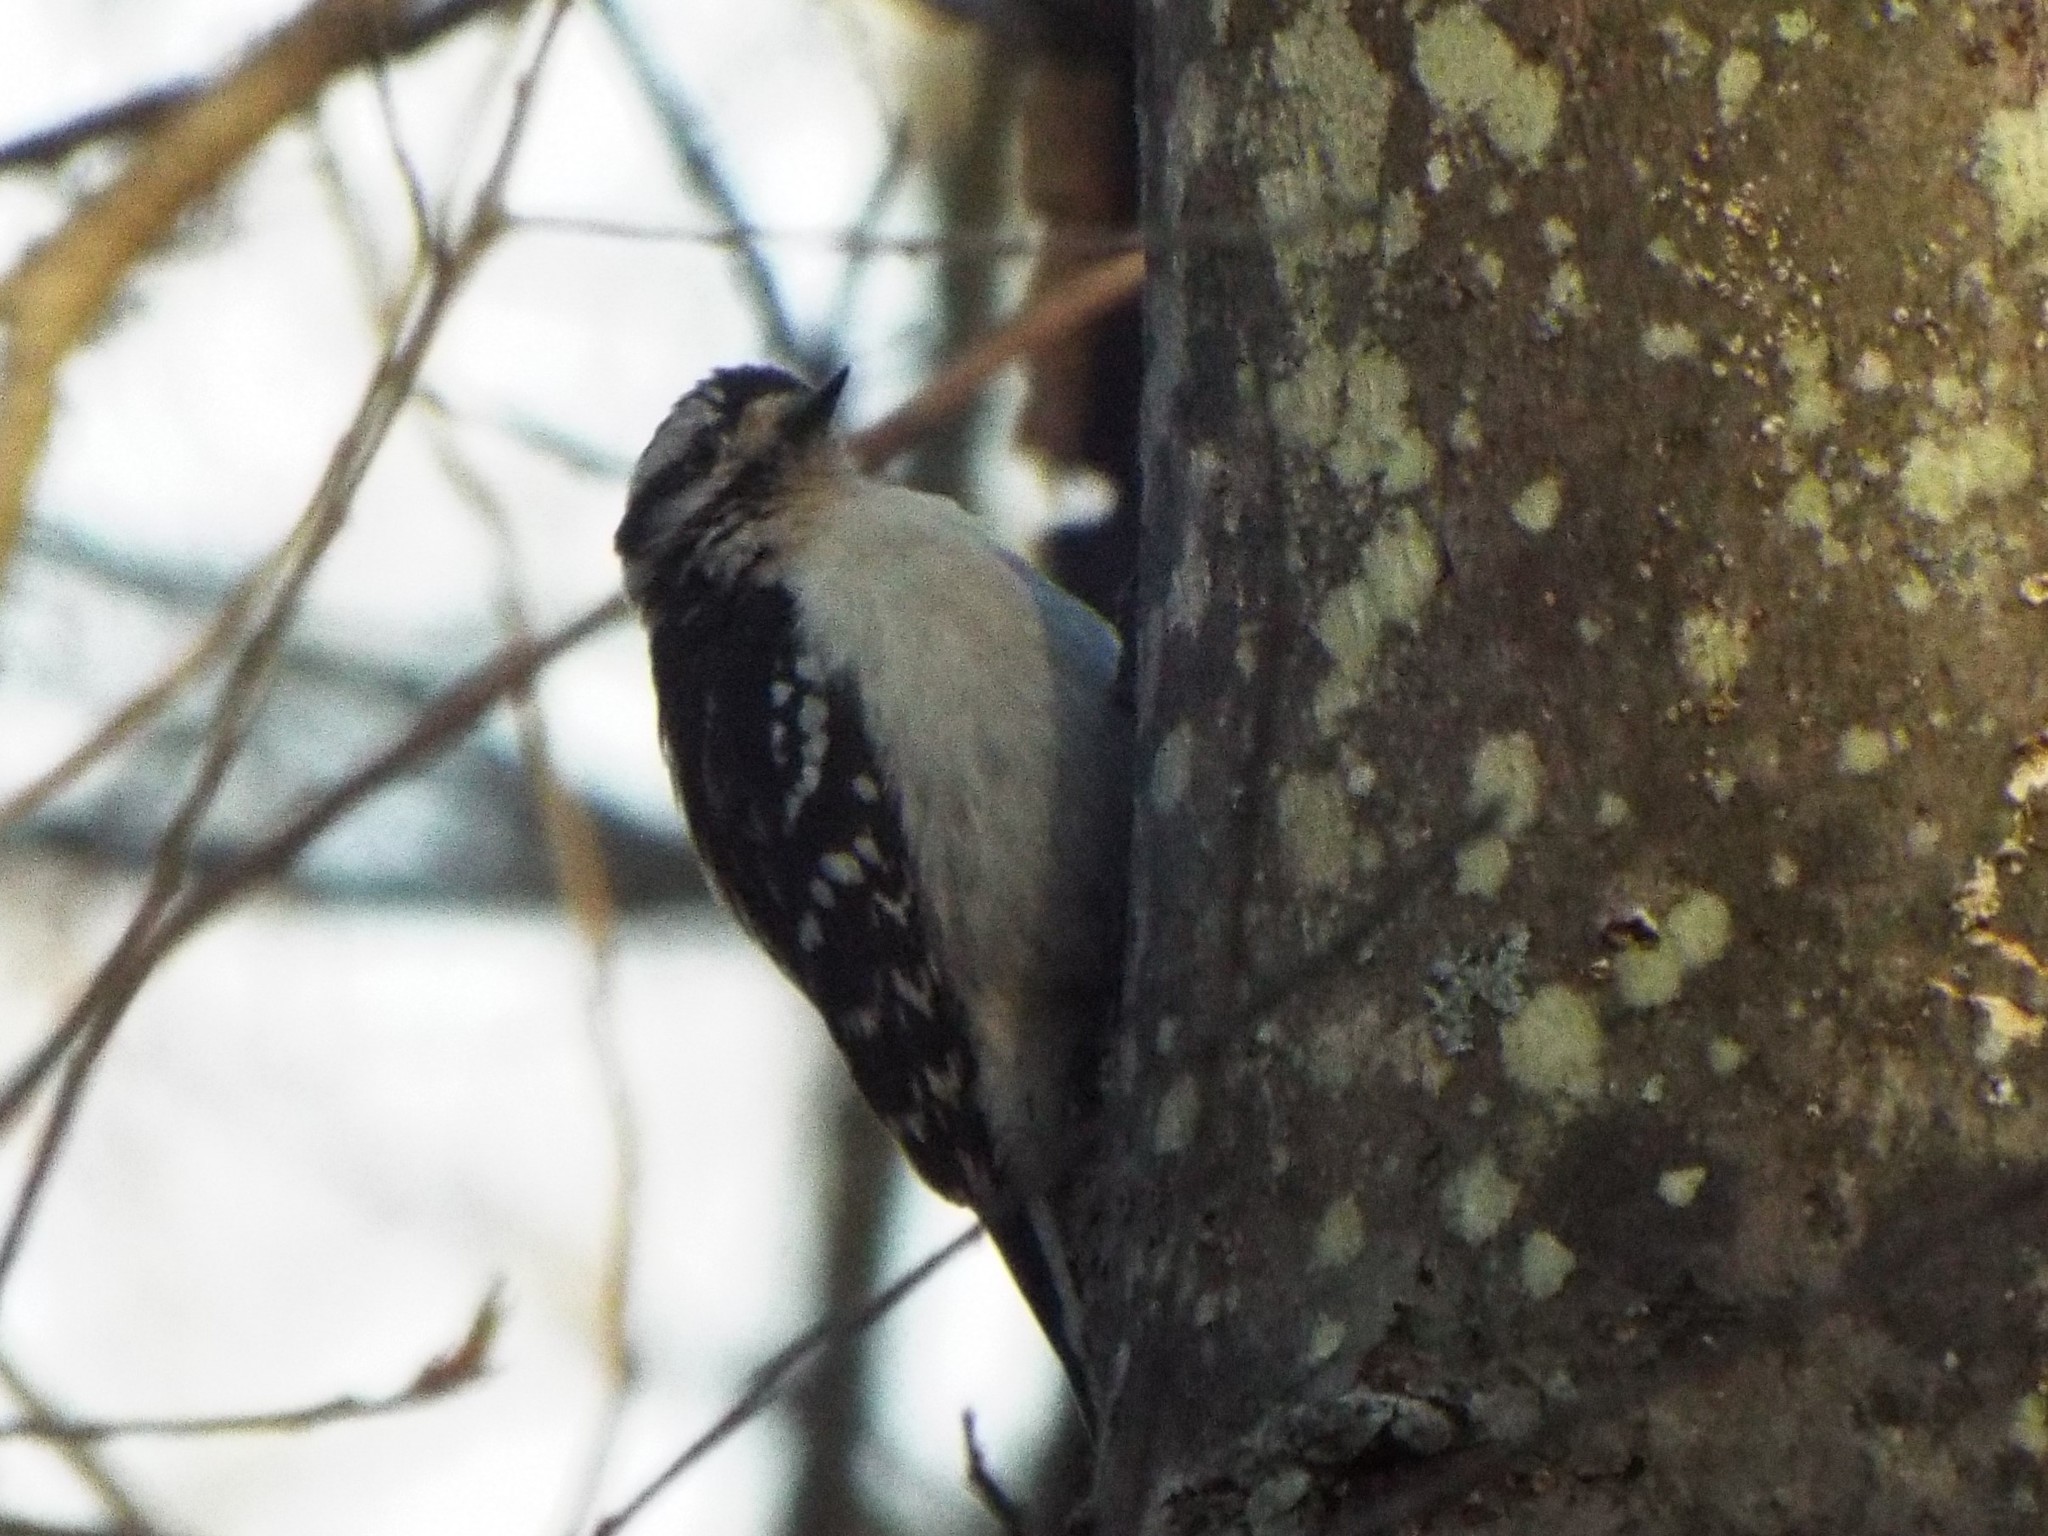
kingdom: Animalia
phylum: Chordata
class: Aves
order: Piciformes
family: Picidae
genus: Dryobates
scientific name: Dryobates pubescens
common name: Downy woodpecker
